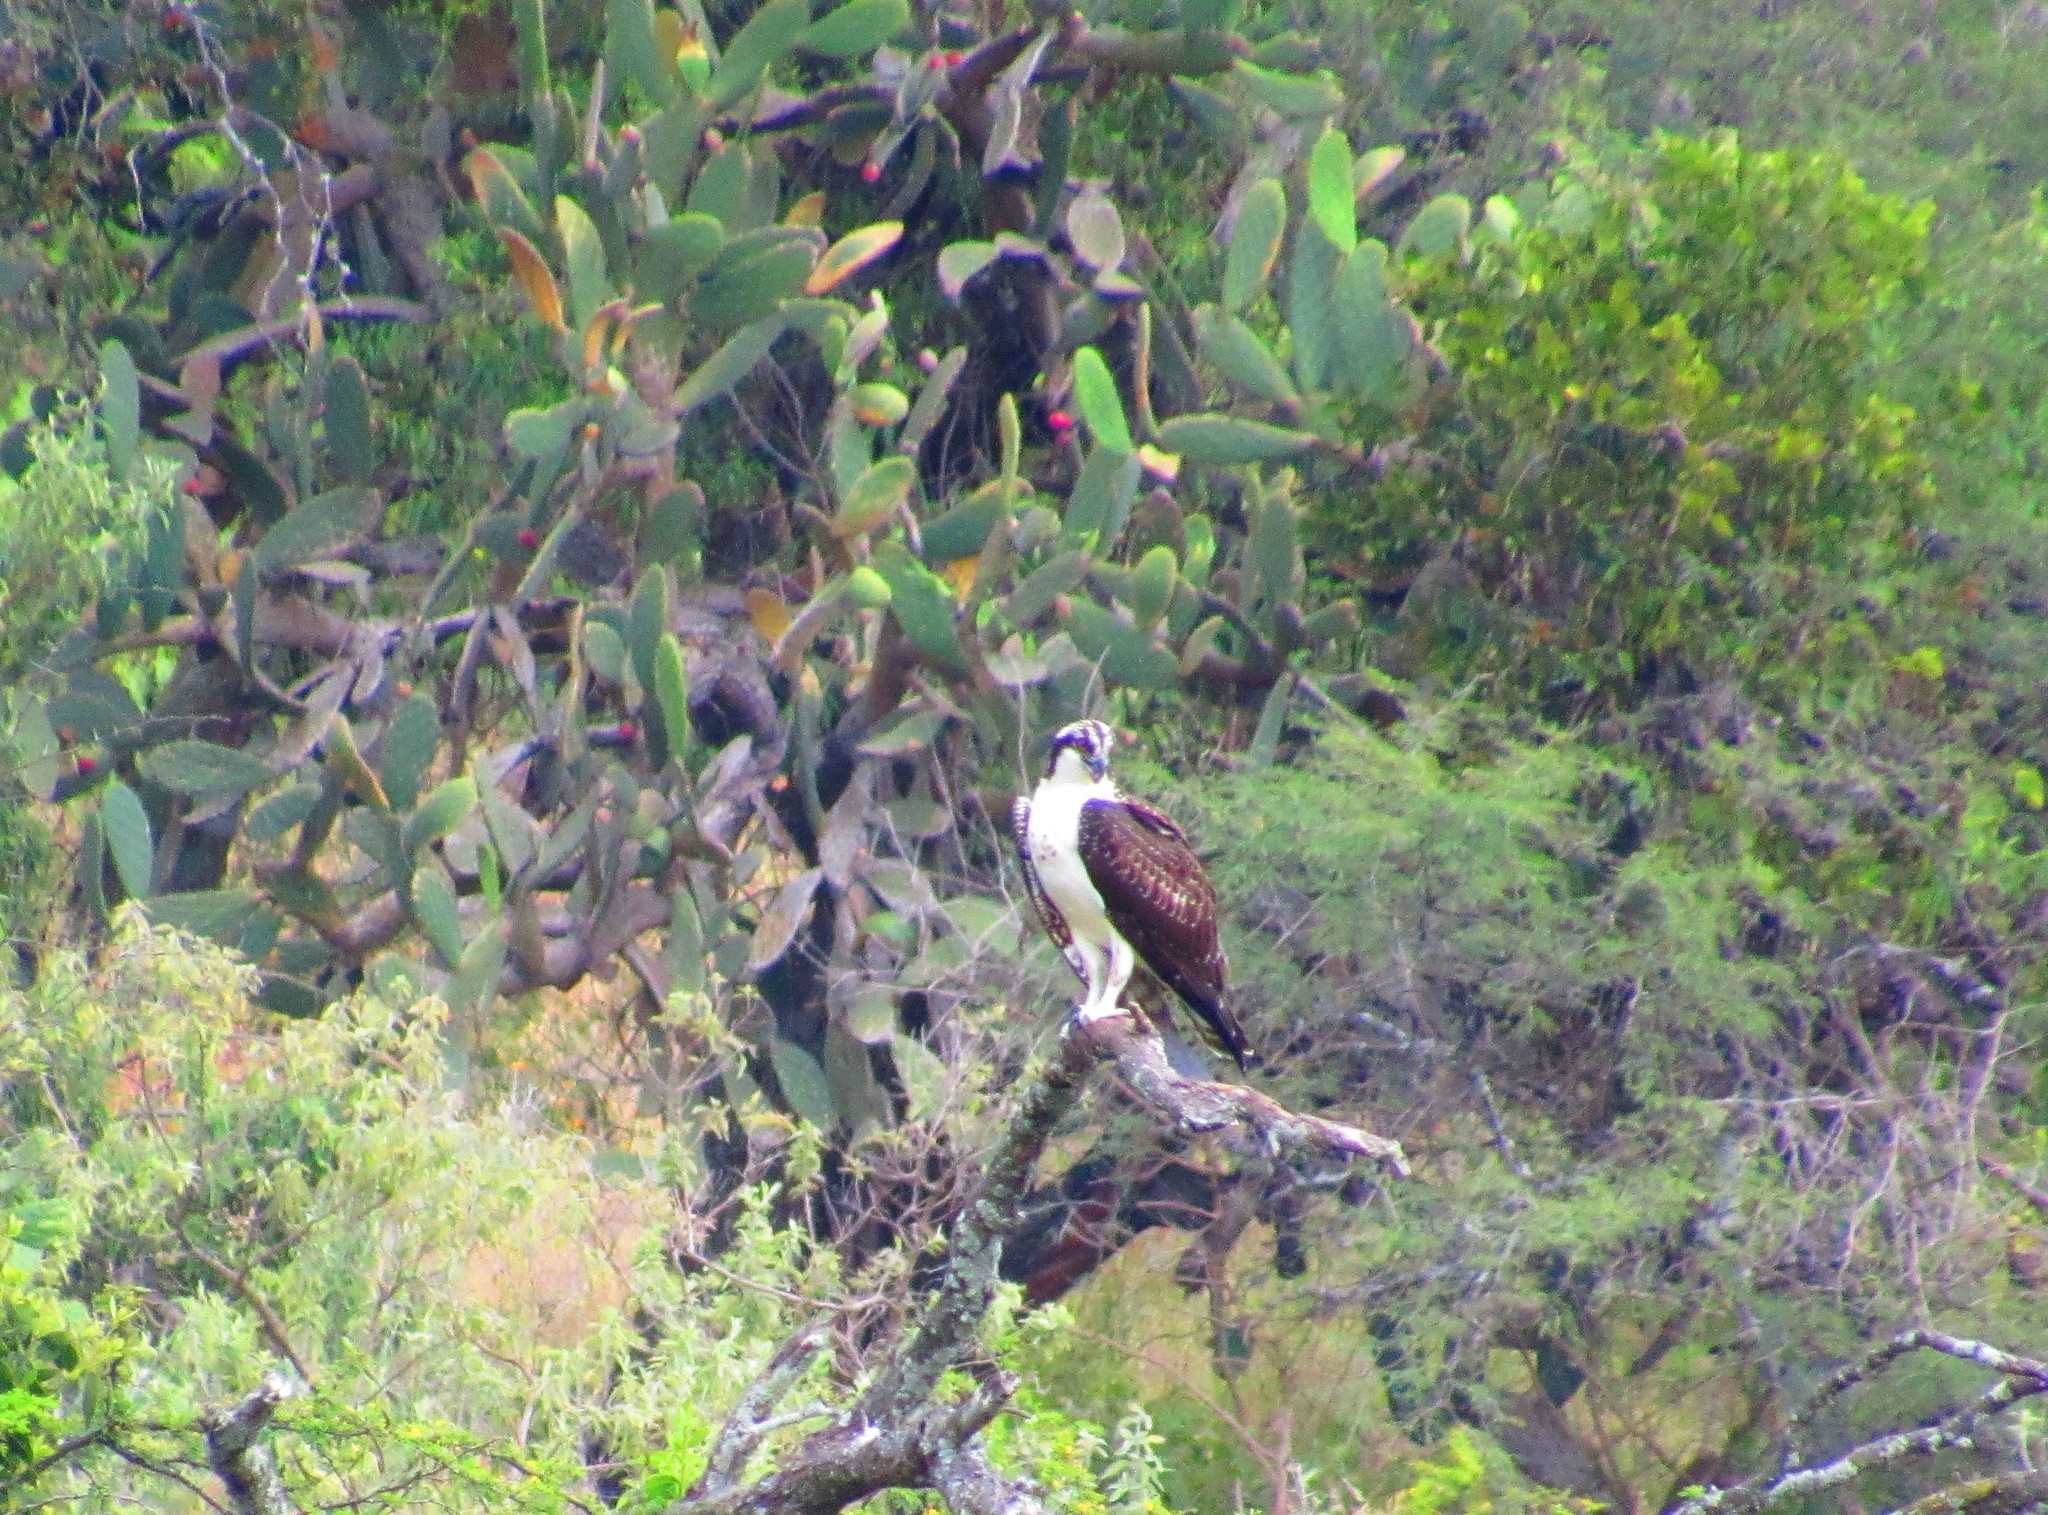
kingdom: Animalia
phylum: Chordata
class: Aves
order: Accipitriformes
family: Pandionidae
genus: Pandion
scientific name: Pandion haliaetus
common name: Osprey
